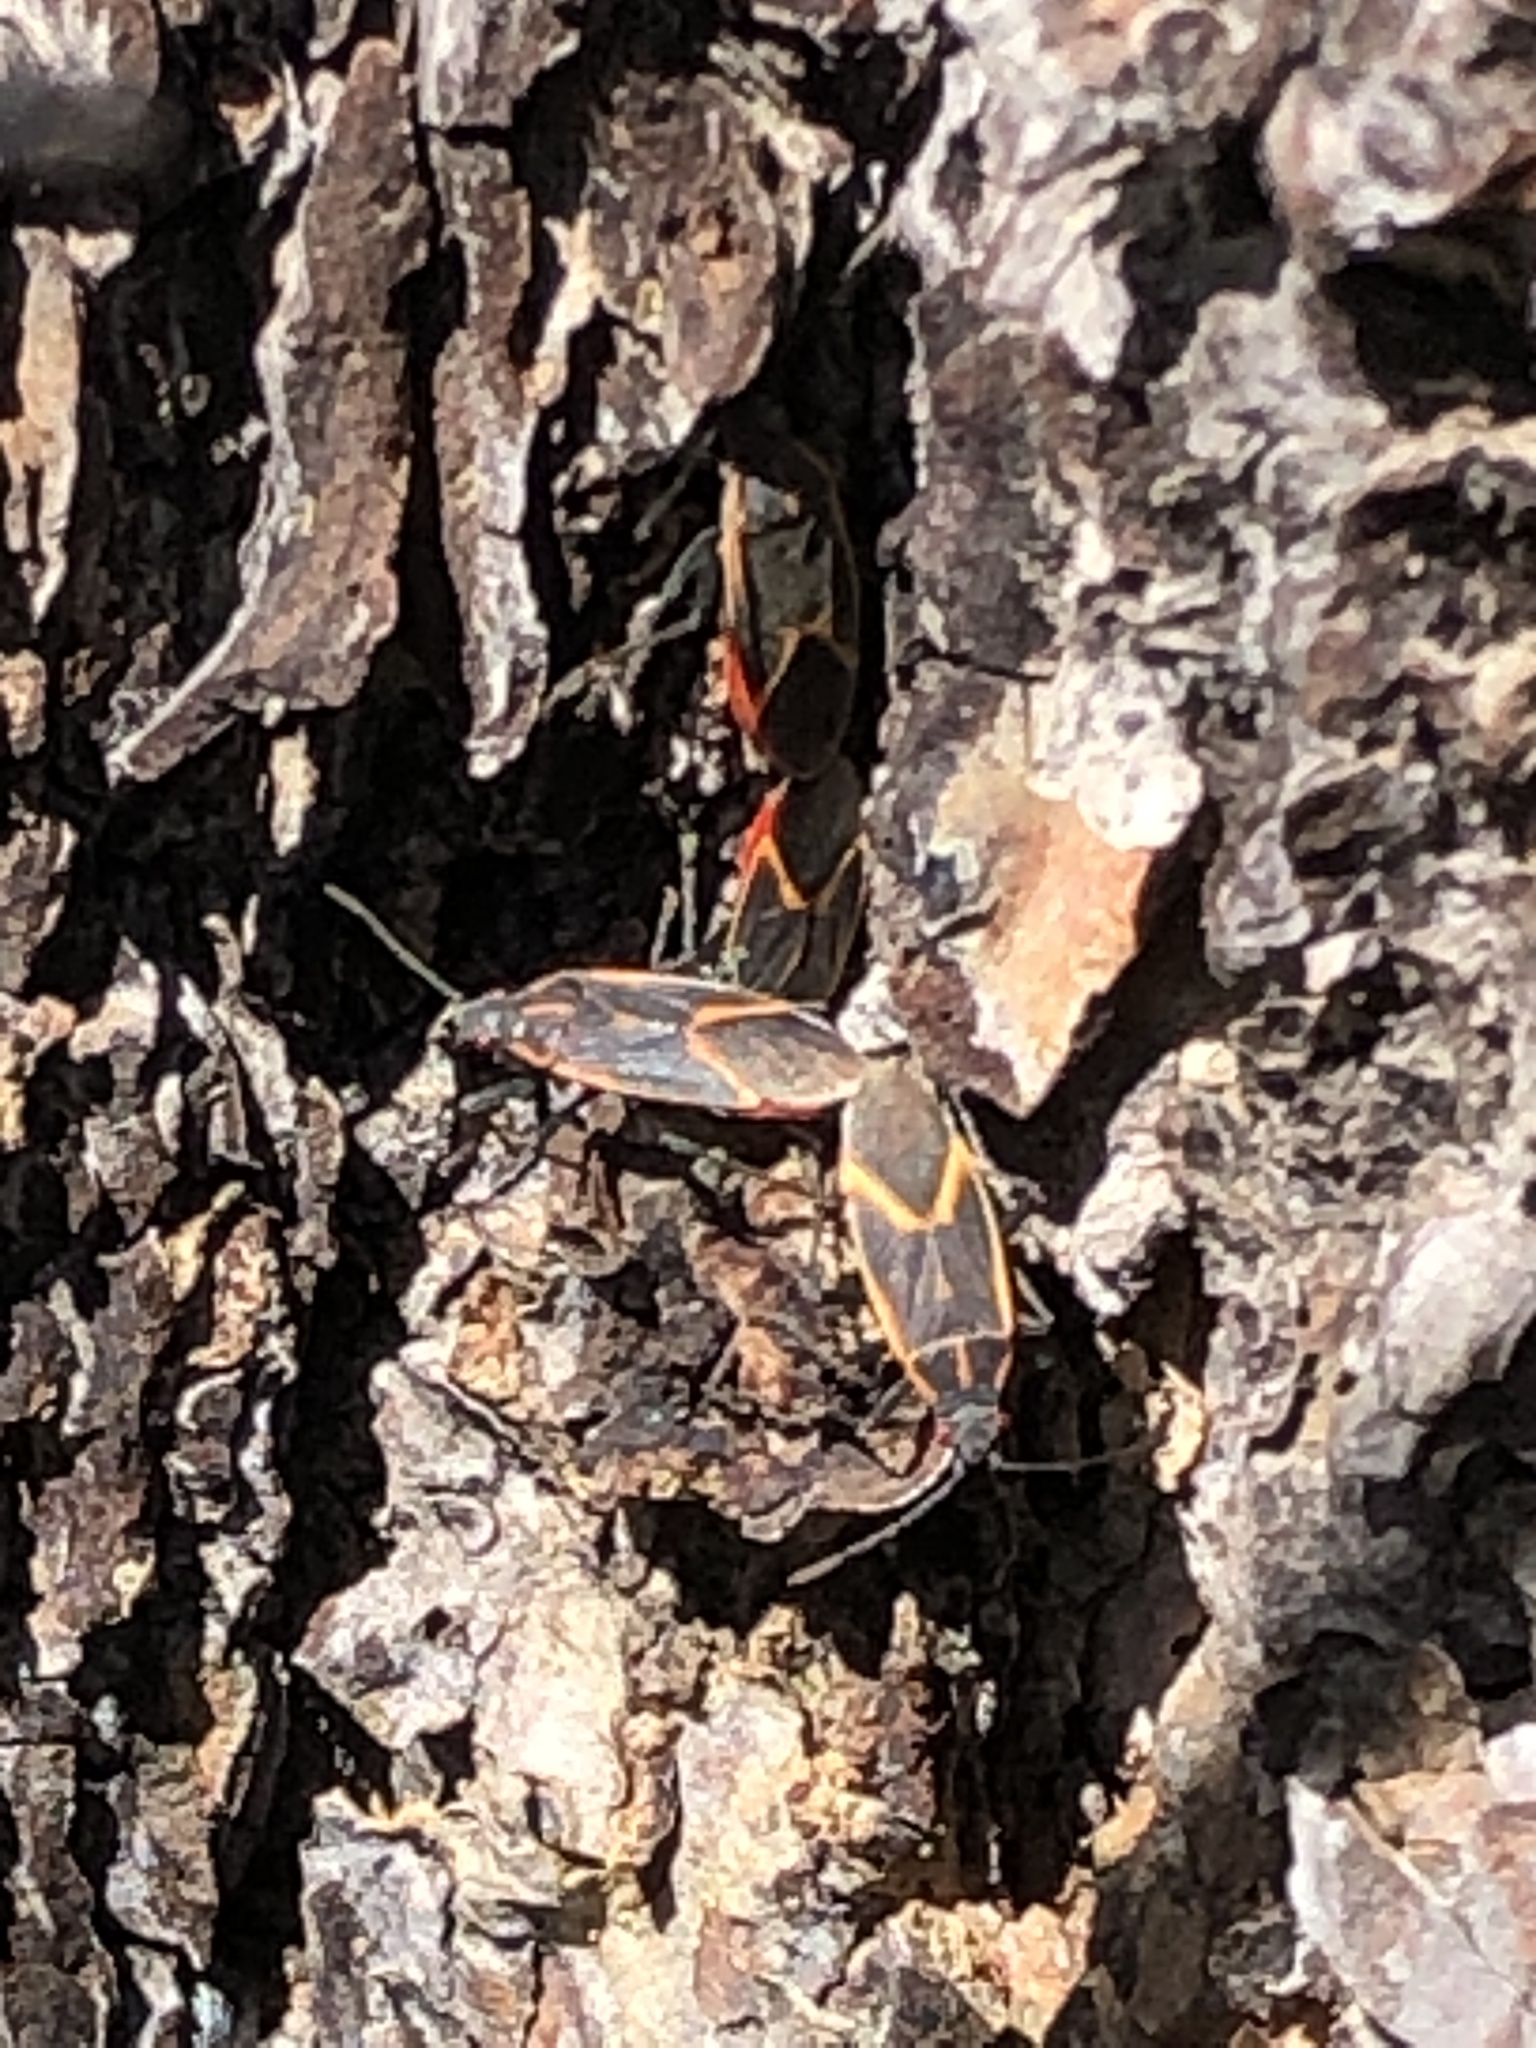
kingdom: Animalia
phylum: Arthropoda
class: Insecta
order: Hemiptera
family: Rhopalidae
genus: Boisea
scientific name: Boisea trivittata
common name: Boxelder bug
